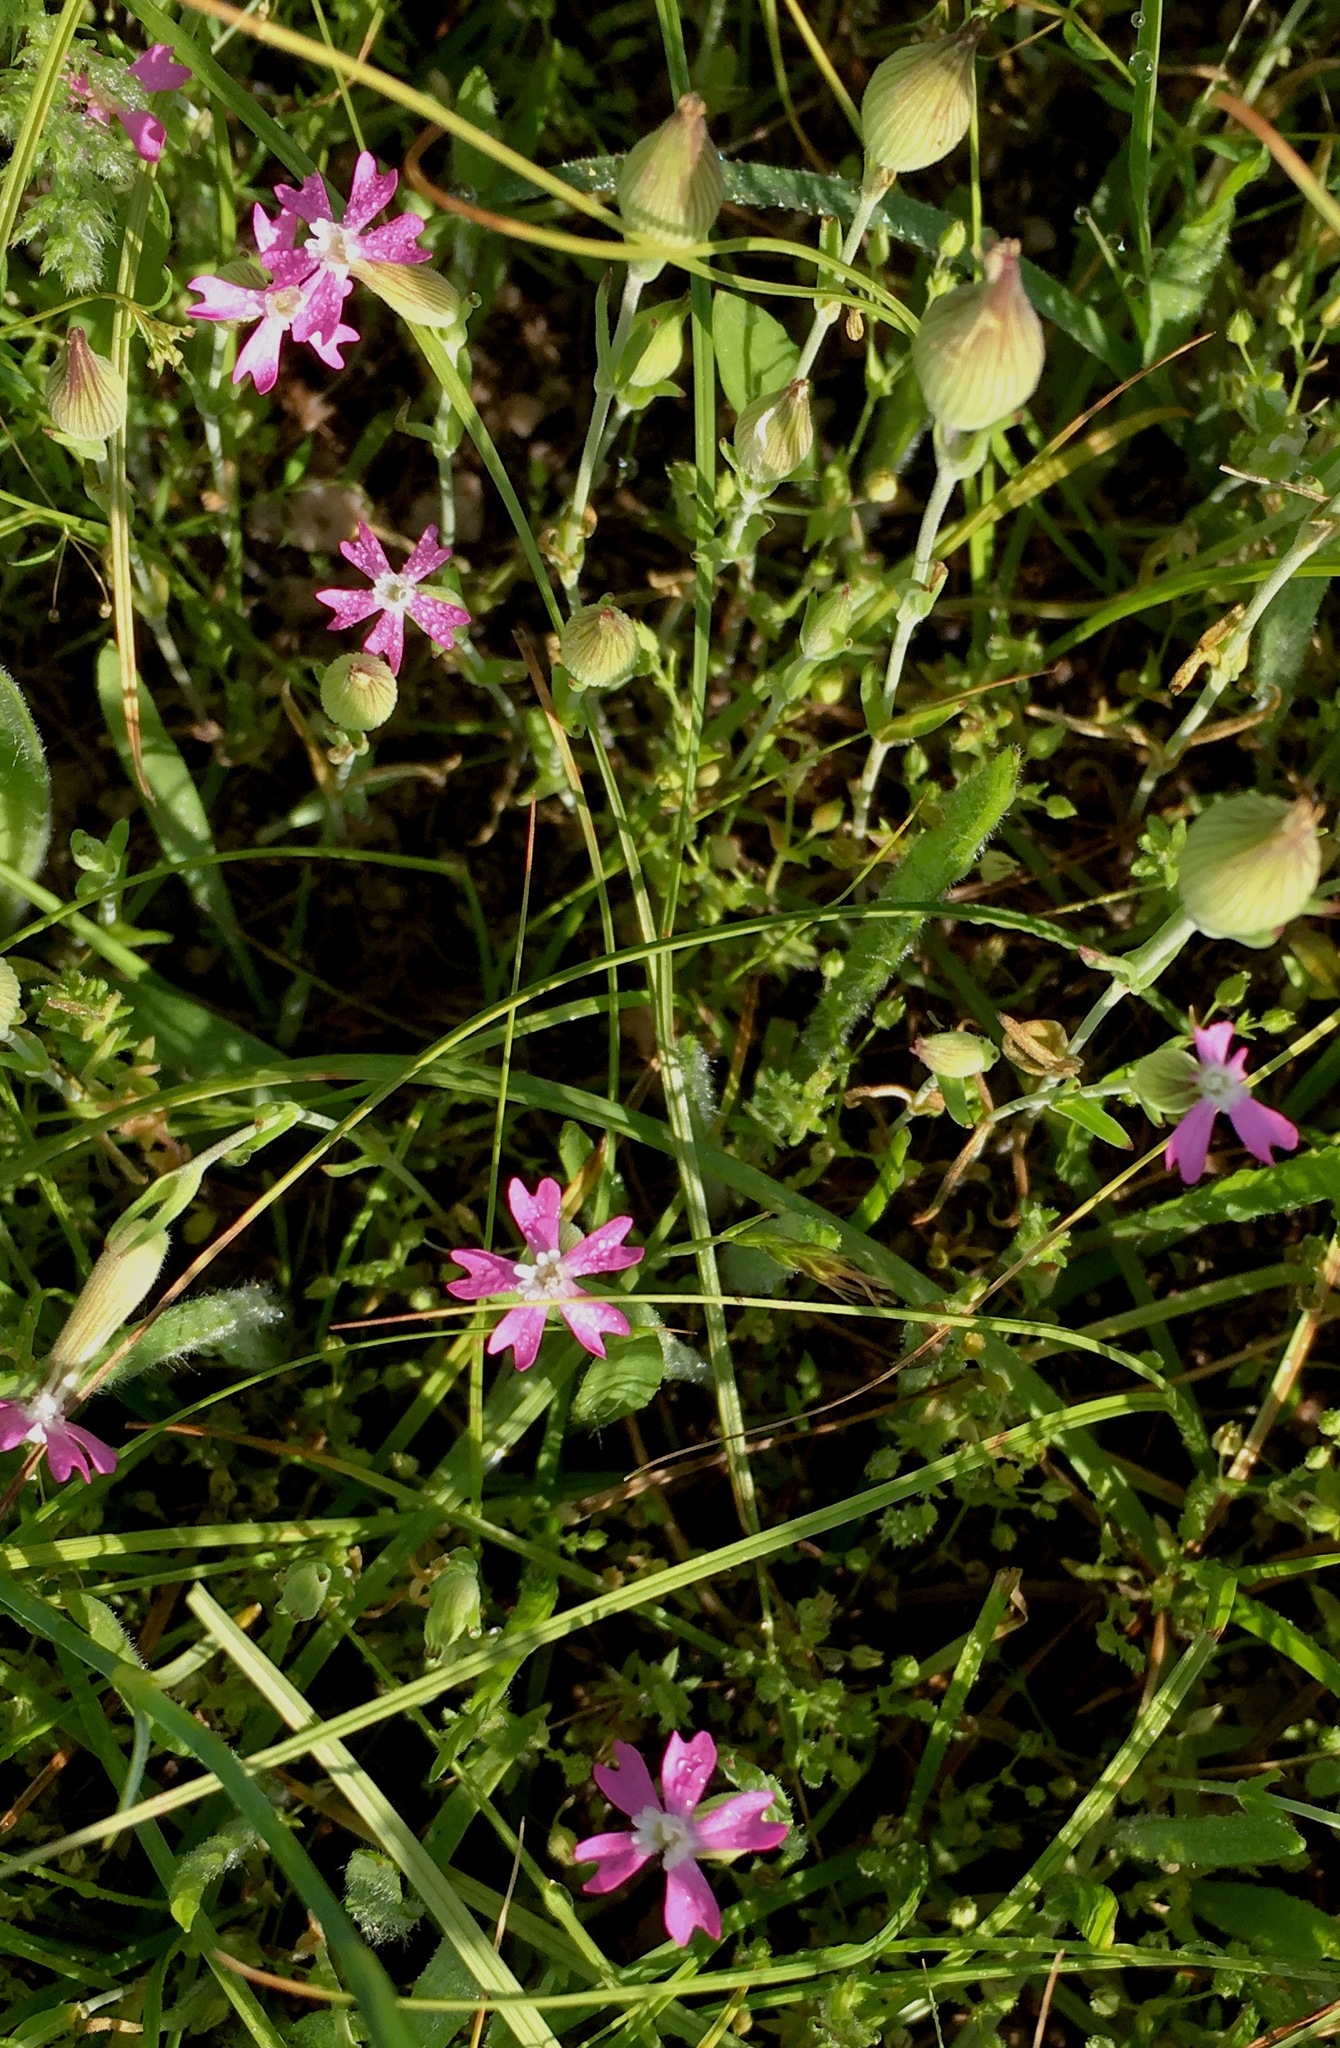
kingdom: Plantae
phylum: Tracheophyta
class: Magnoliopsida
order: Caryophyllales
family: Caryophyllaceae
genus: Silene
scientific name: Silene conica
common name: Sand catchfly
